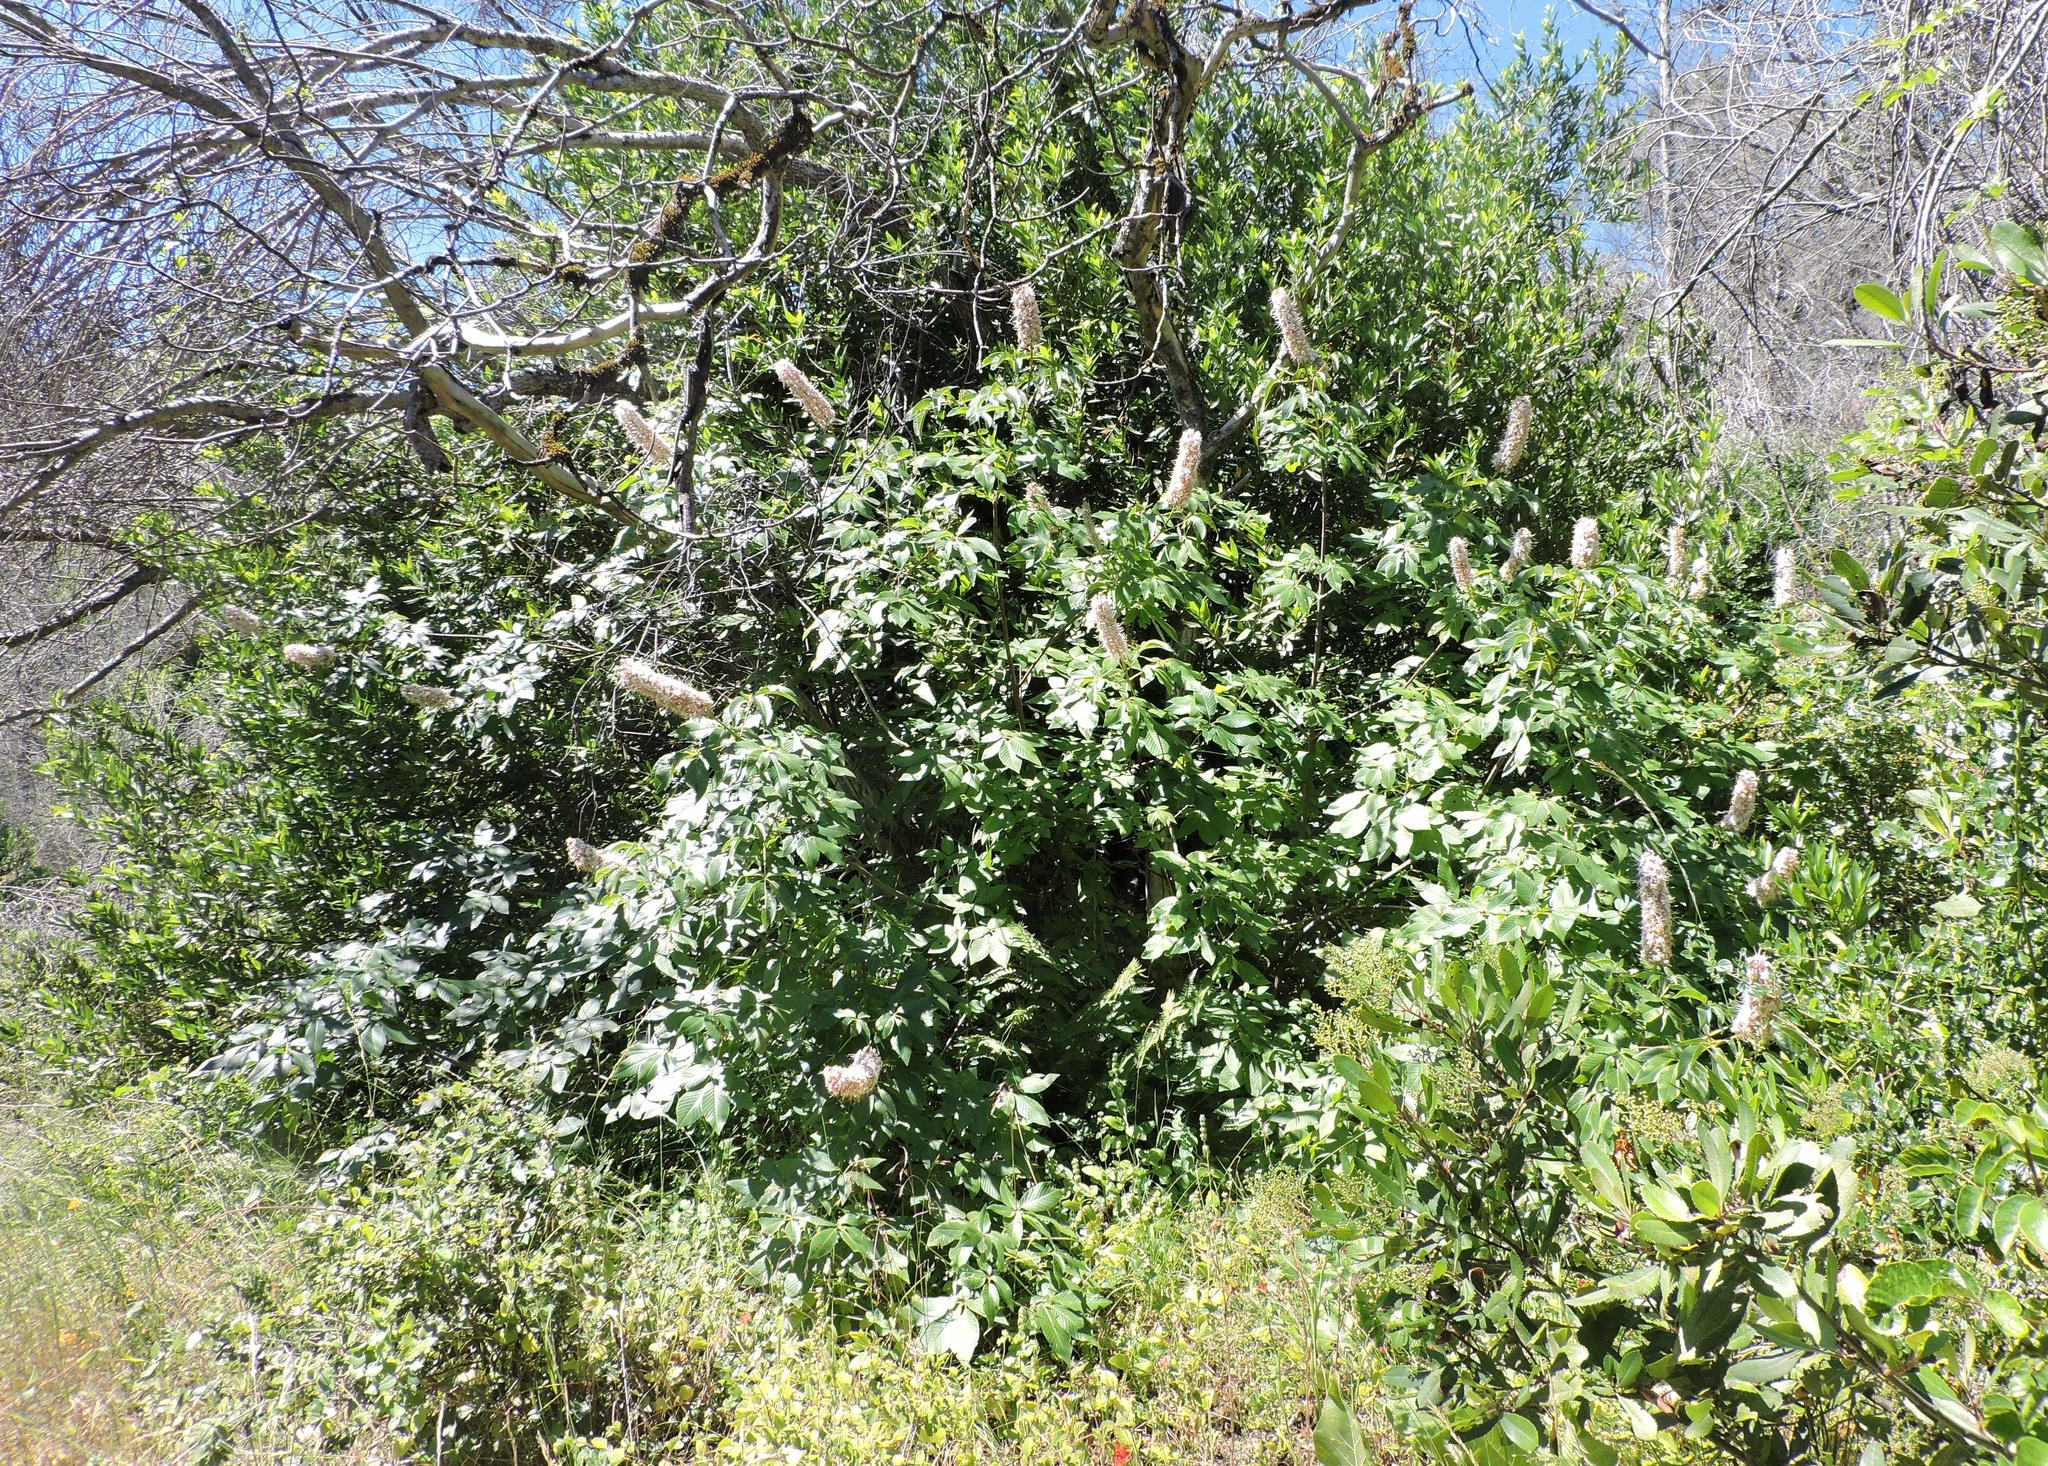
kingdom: Plantae
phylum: Tracheophyta
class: Magnoliopsida
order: Sapindales
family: Sapindaceae
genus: Aesculus
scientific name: Aesculus californica
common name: California buckeye
